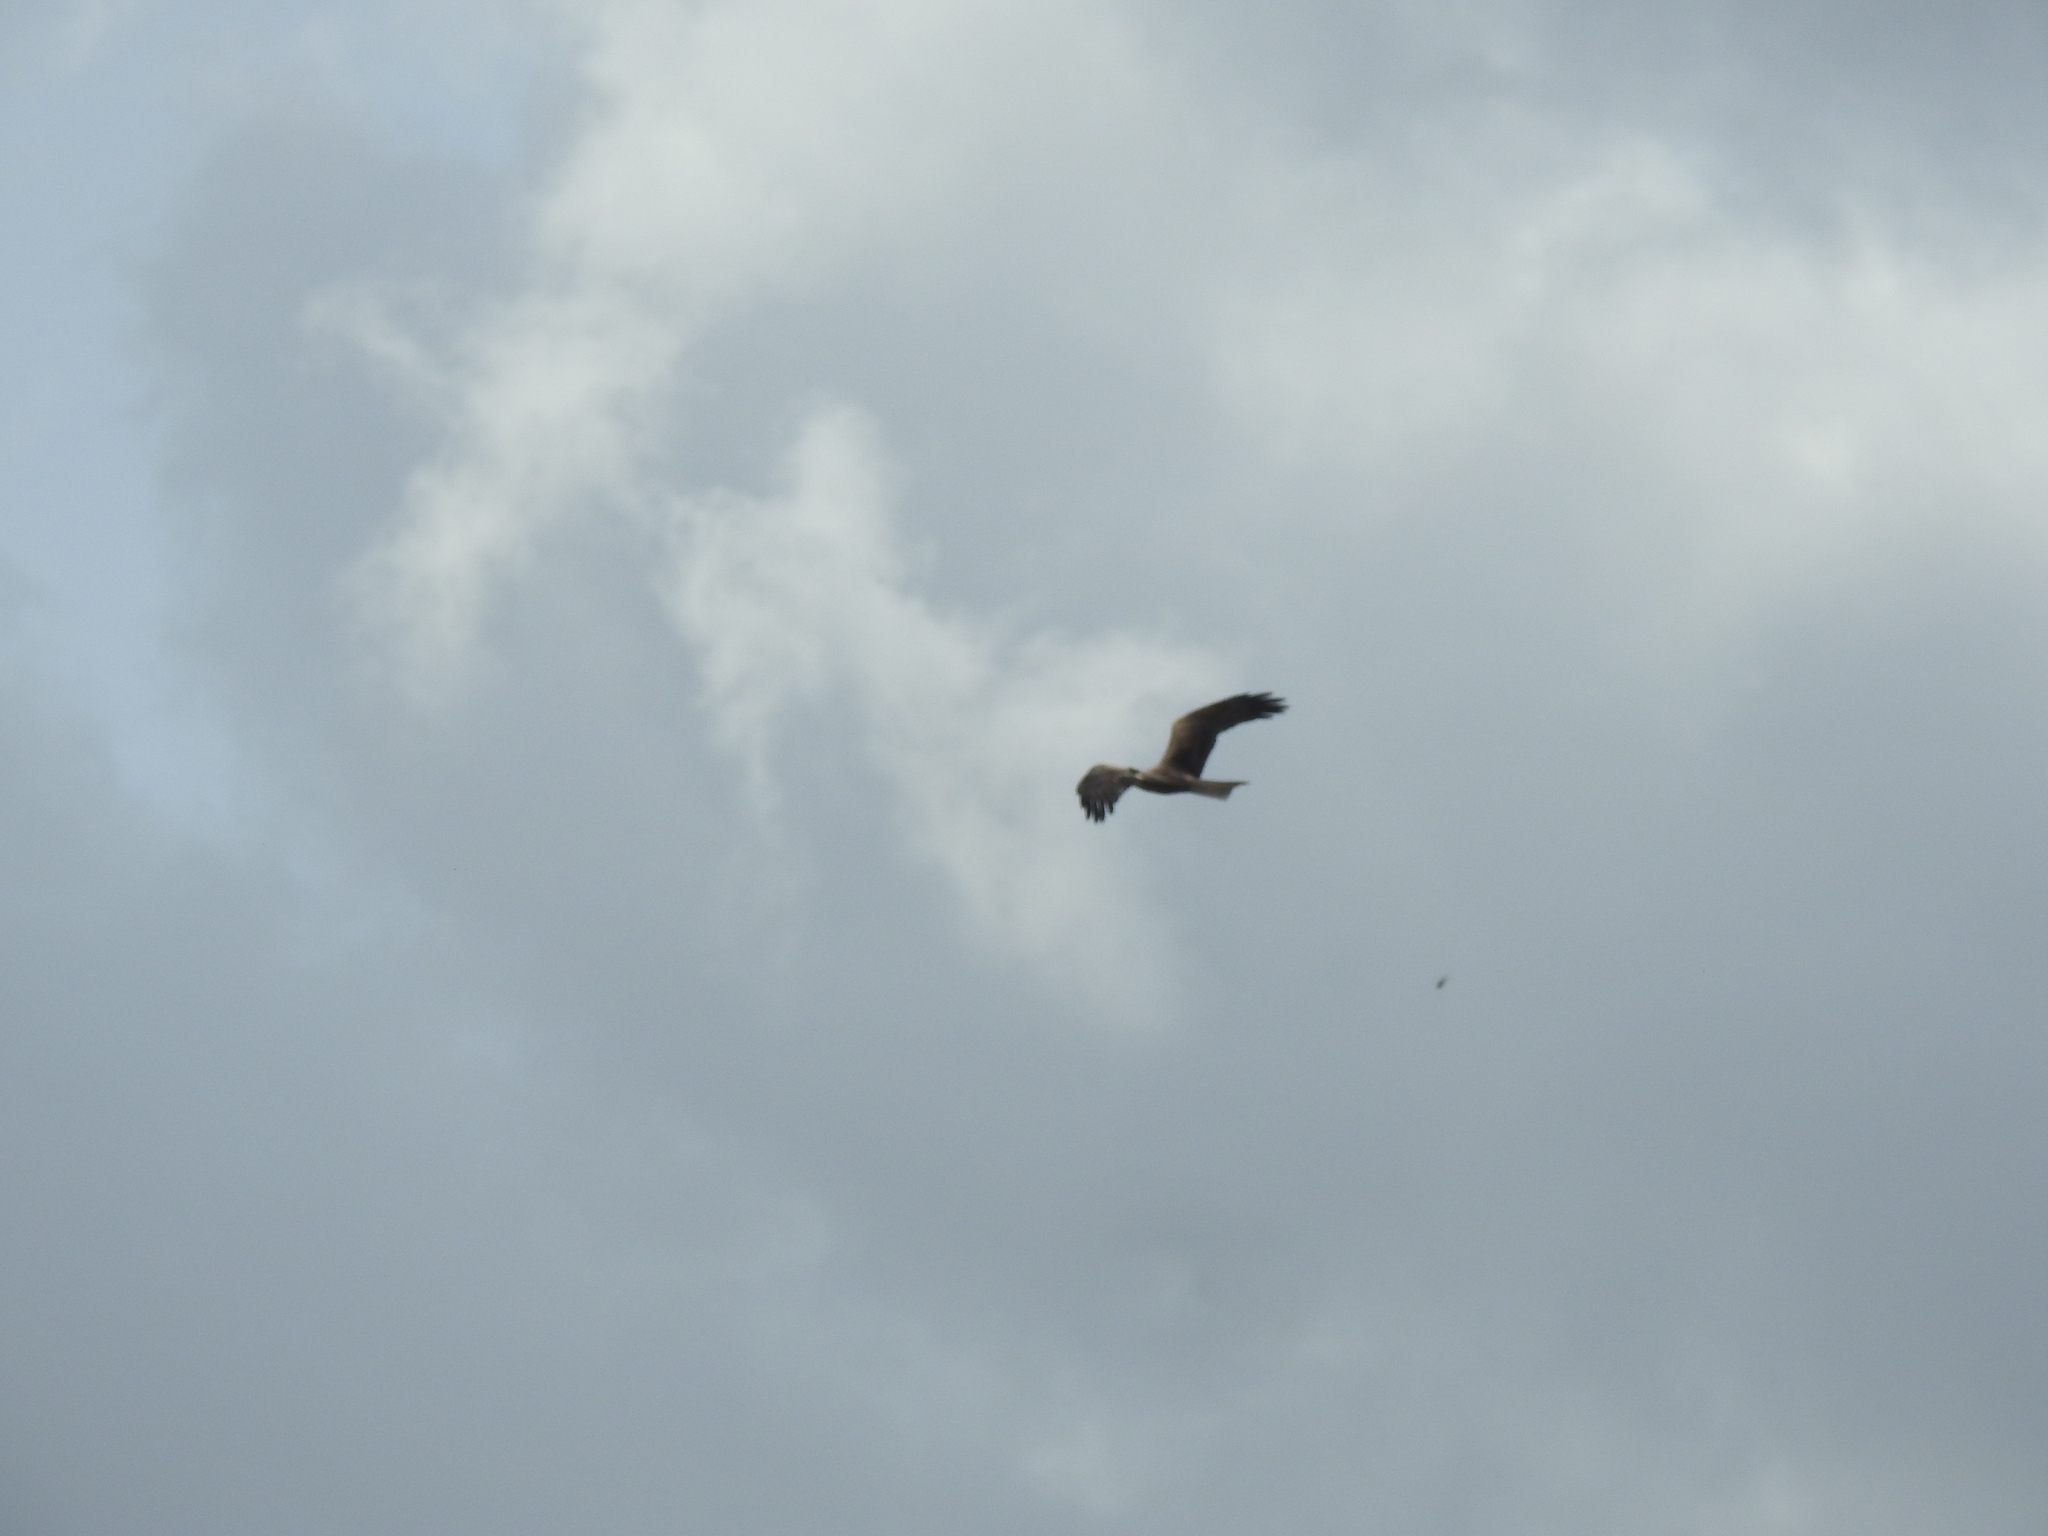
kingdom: Animalia
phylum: Chordata
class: Aves
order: Accipitriformes
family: Accipitridae
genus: Milvus
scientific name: Milvus migrans
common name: Black kite
